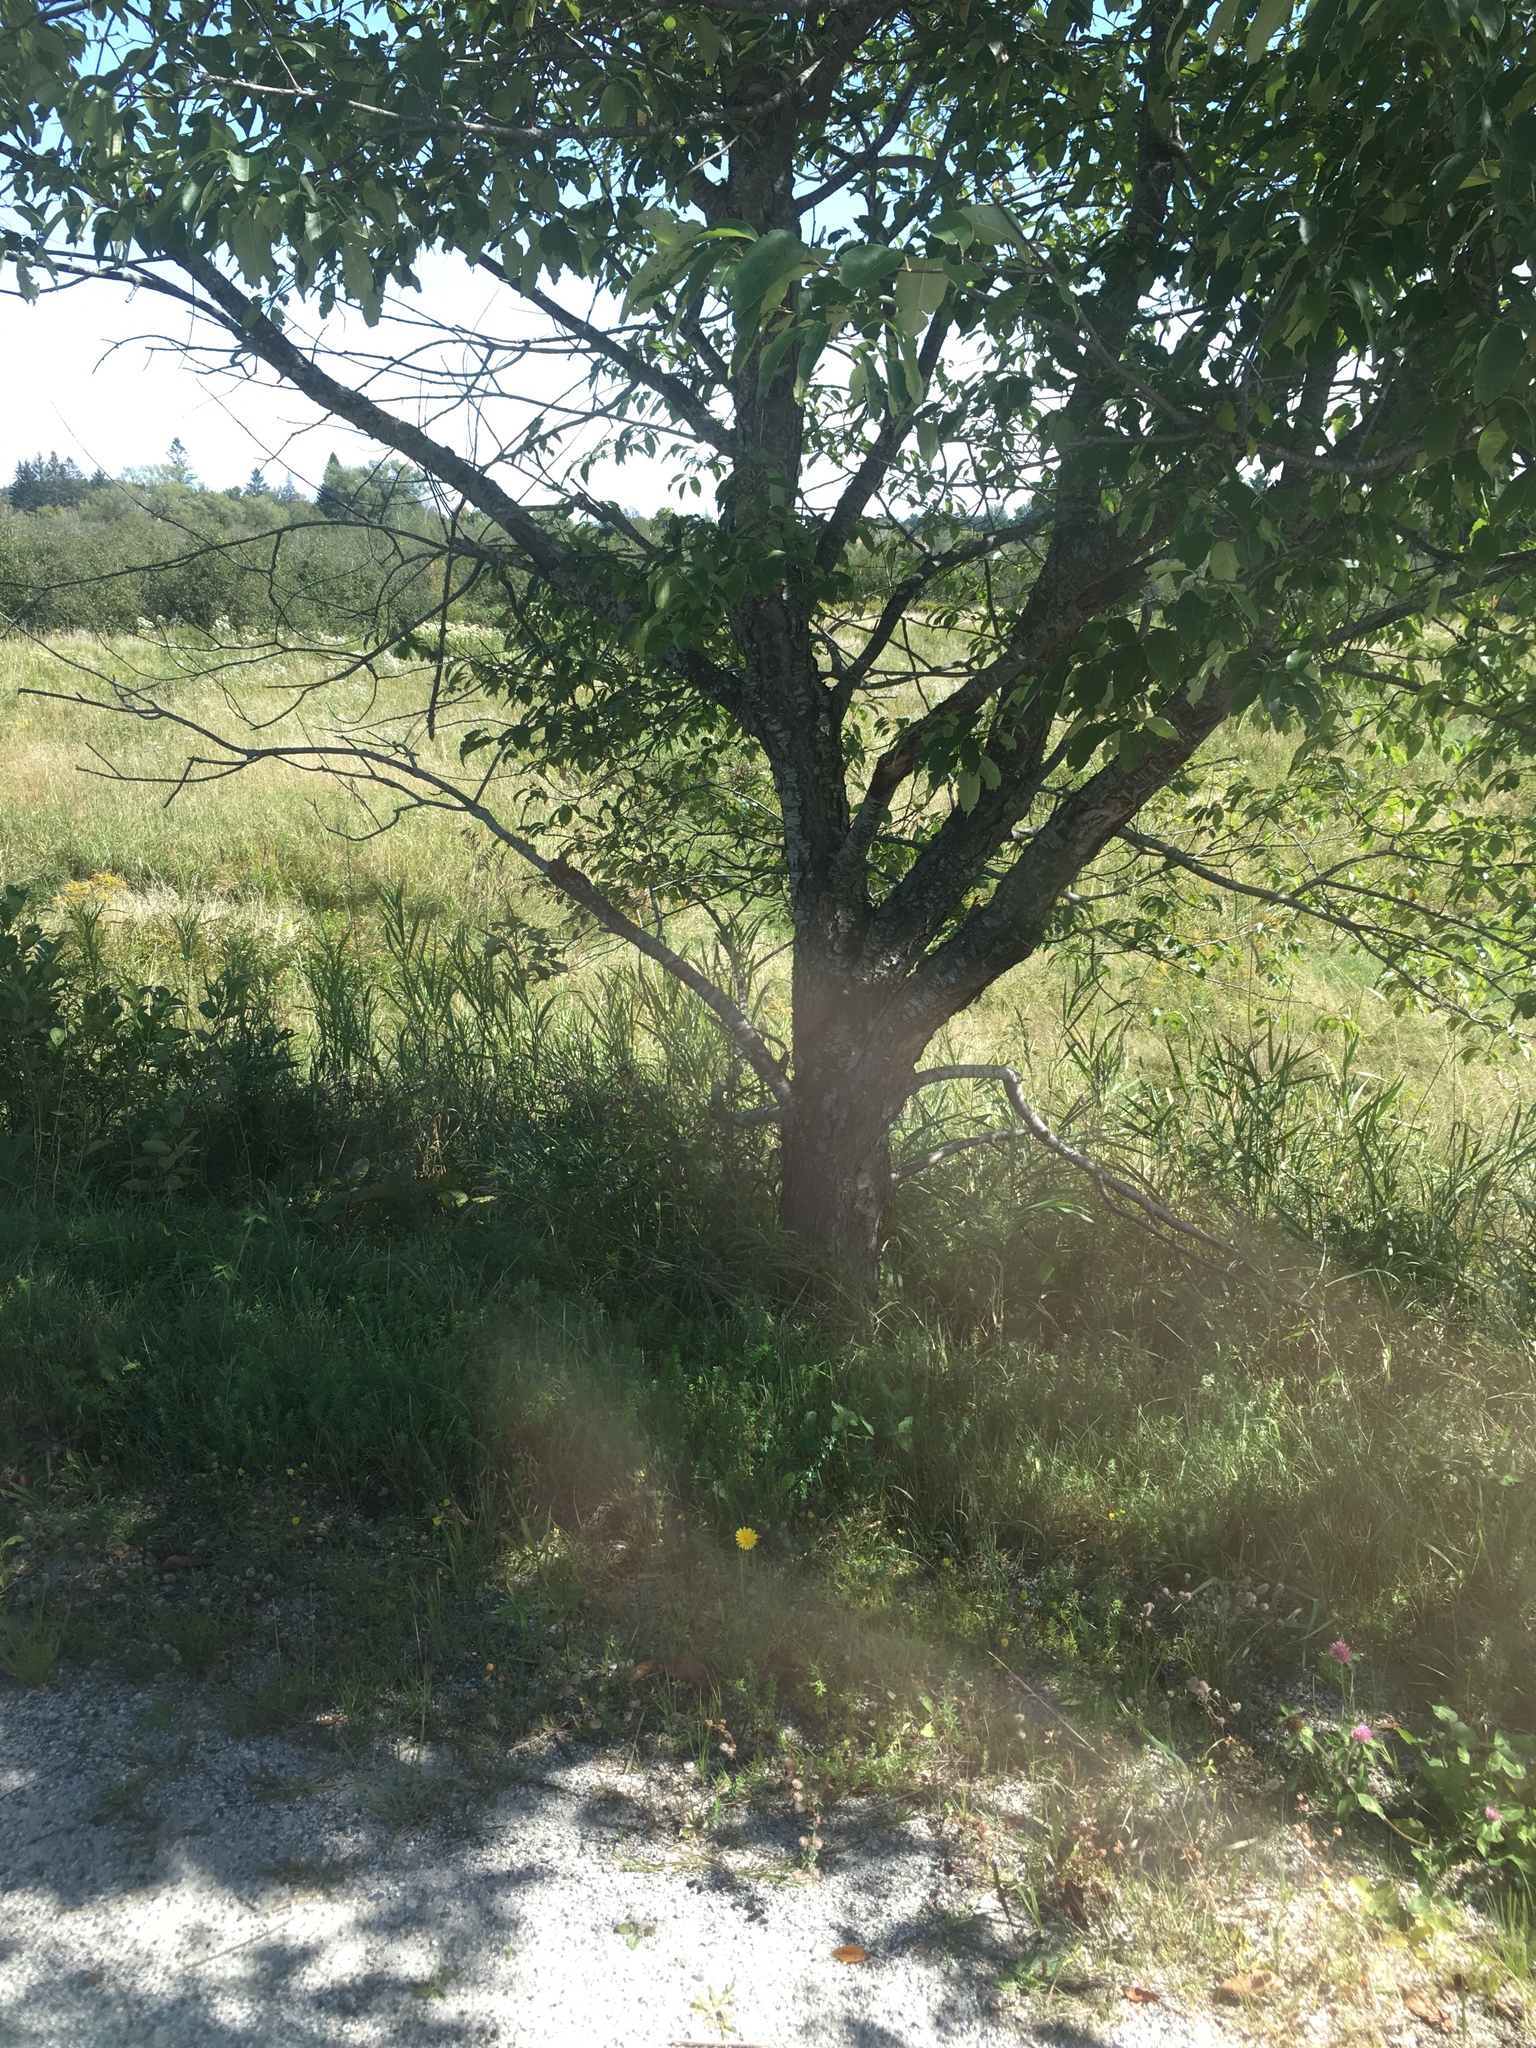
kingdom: Plantae
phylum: Tracheophyta
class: Magnoliopsida
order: Rosales
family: Rosaceae
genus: Prunus
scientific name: Prunus serotina
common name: Black cherry
